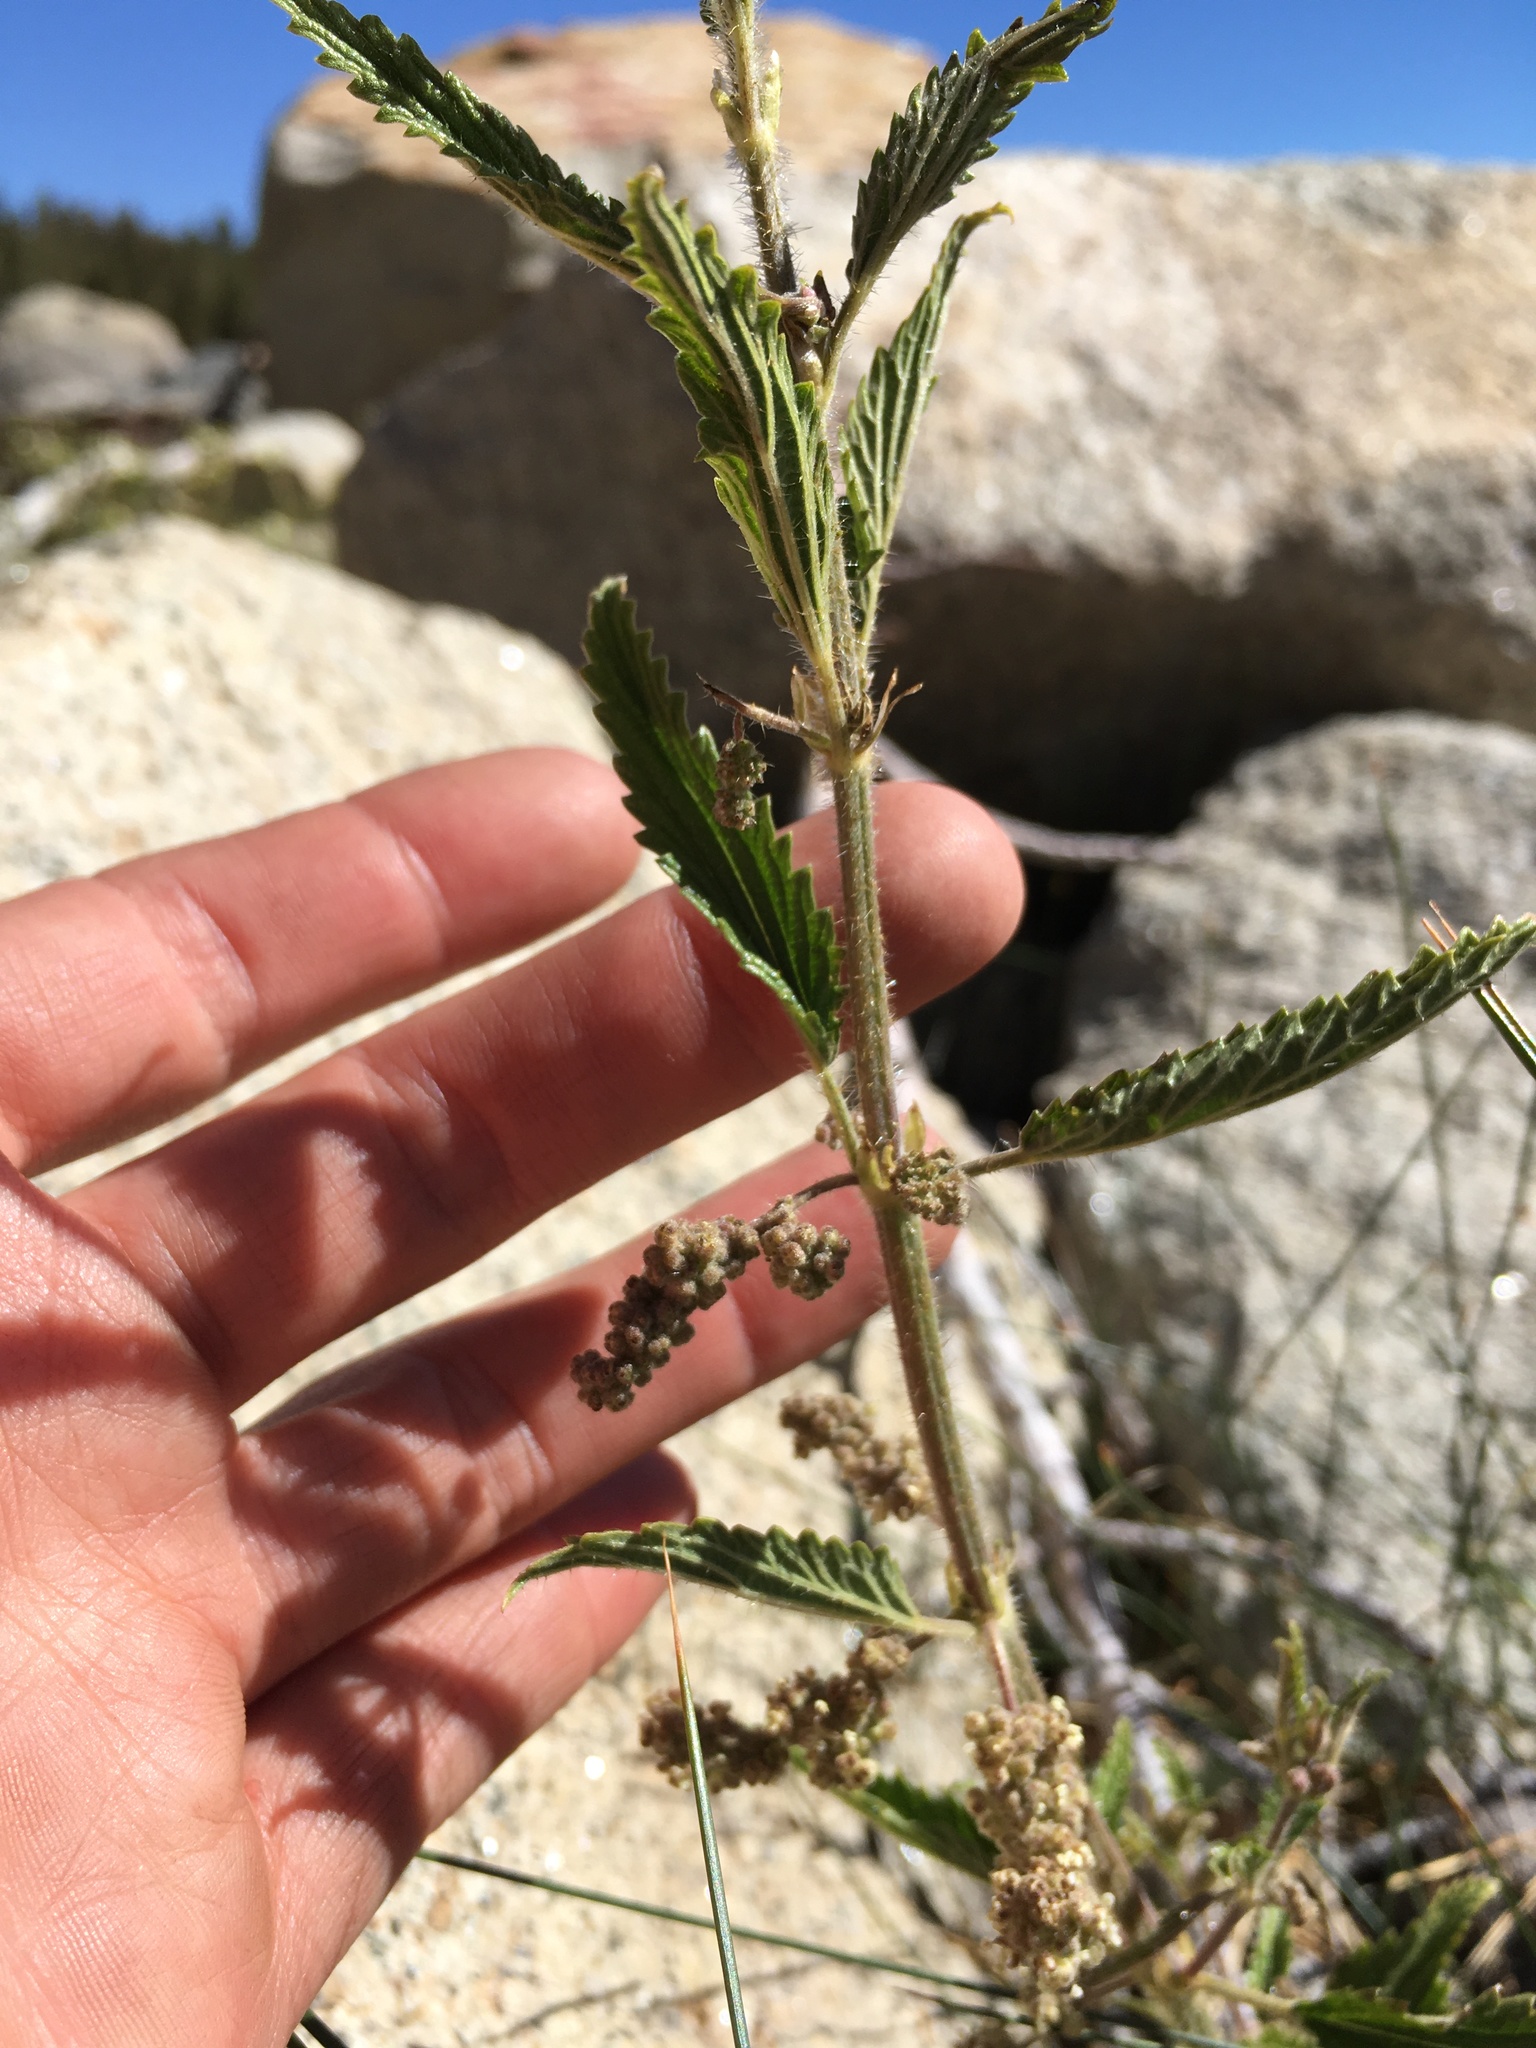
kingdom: Plantae
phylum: Tracheophyta
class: Magnoliopsida
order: Rosales
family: Urticaceae
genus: Urtica
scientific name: Urtica gracilis
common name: Slender stinging nettle
